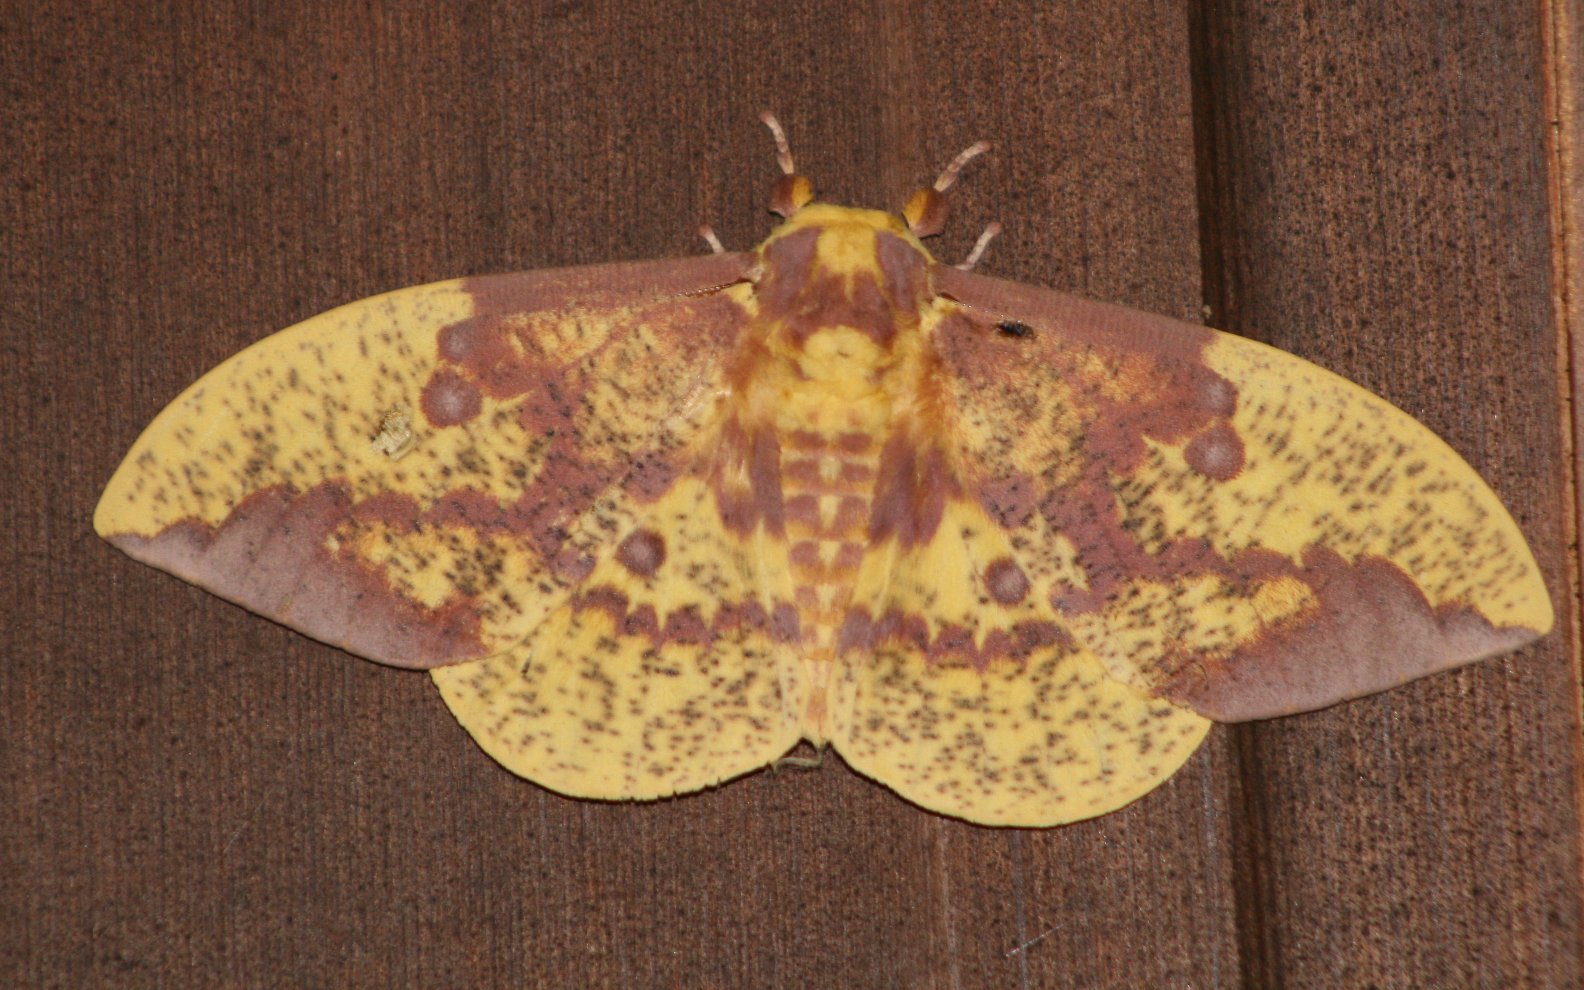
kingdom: Animalia
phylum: Arthropoda
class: Insecta
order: Lepidoptera
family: Saturniidae
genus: Eacles
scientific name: Eacles imperialis
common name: Imperial moth
